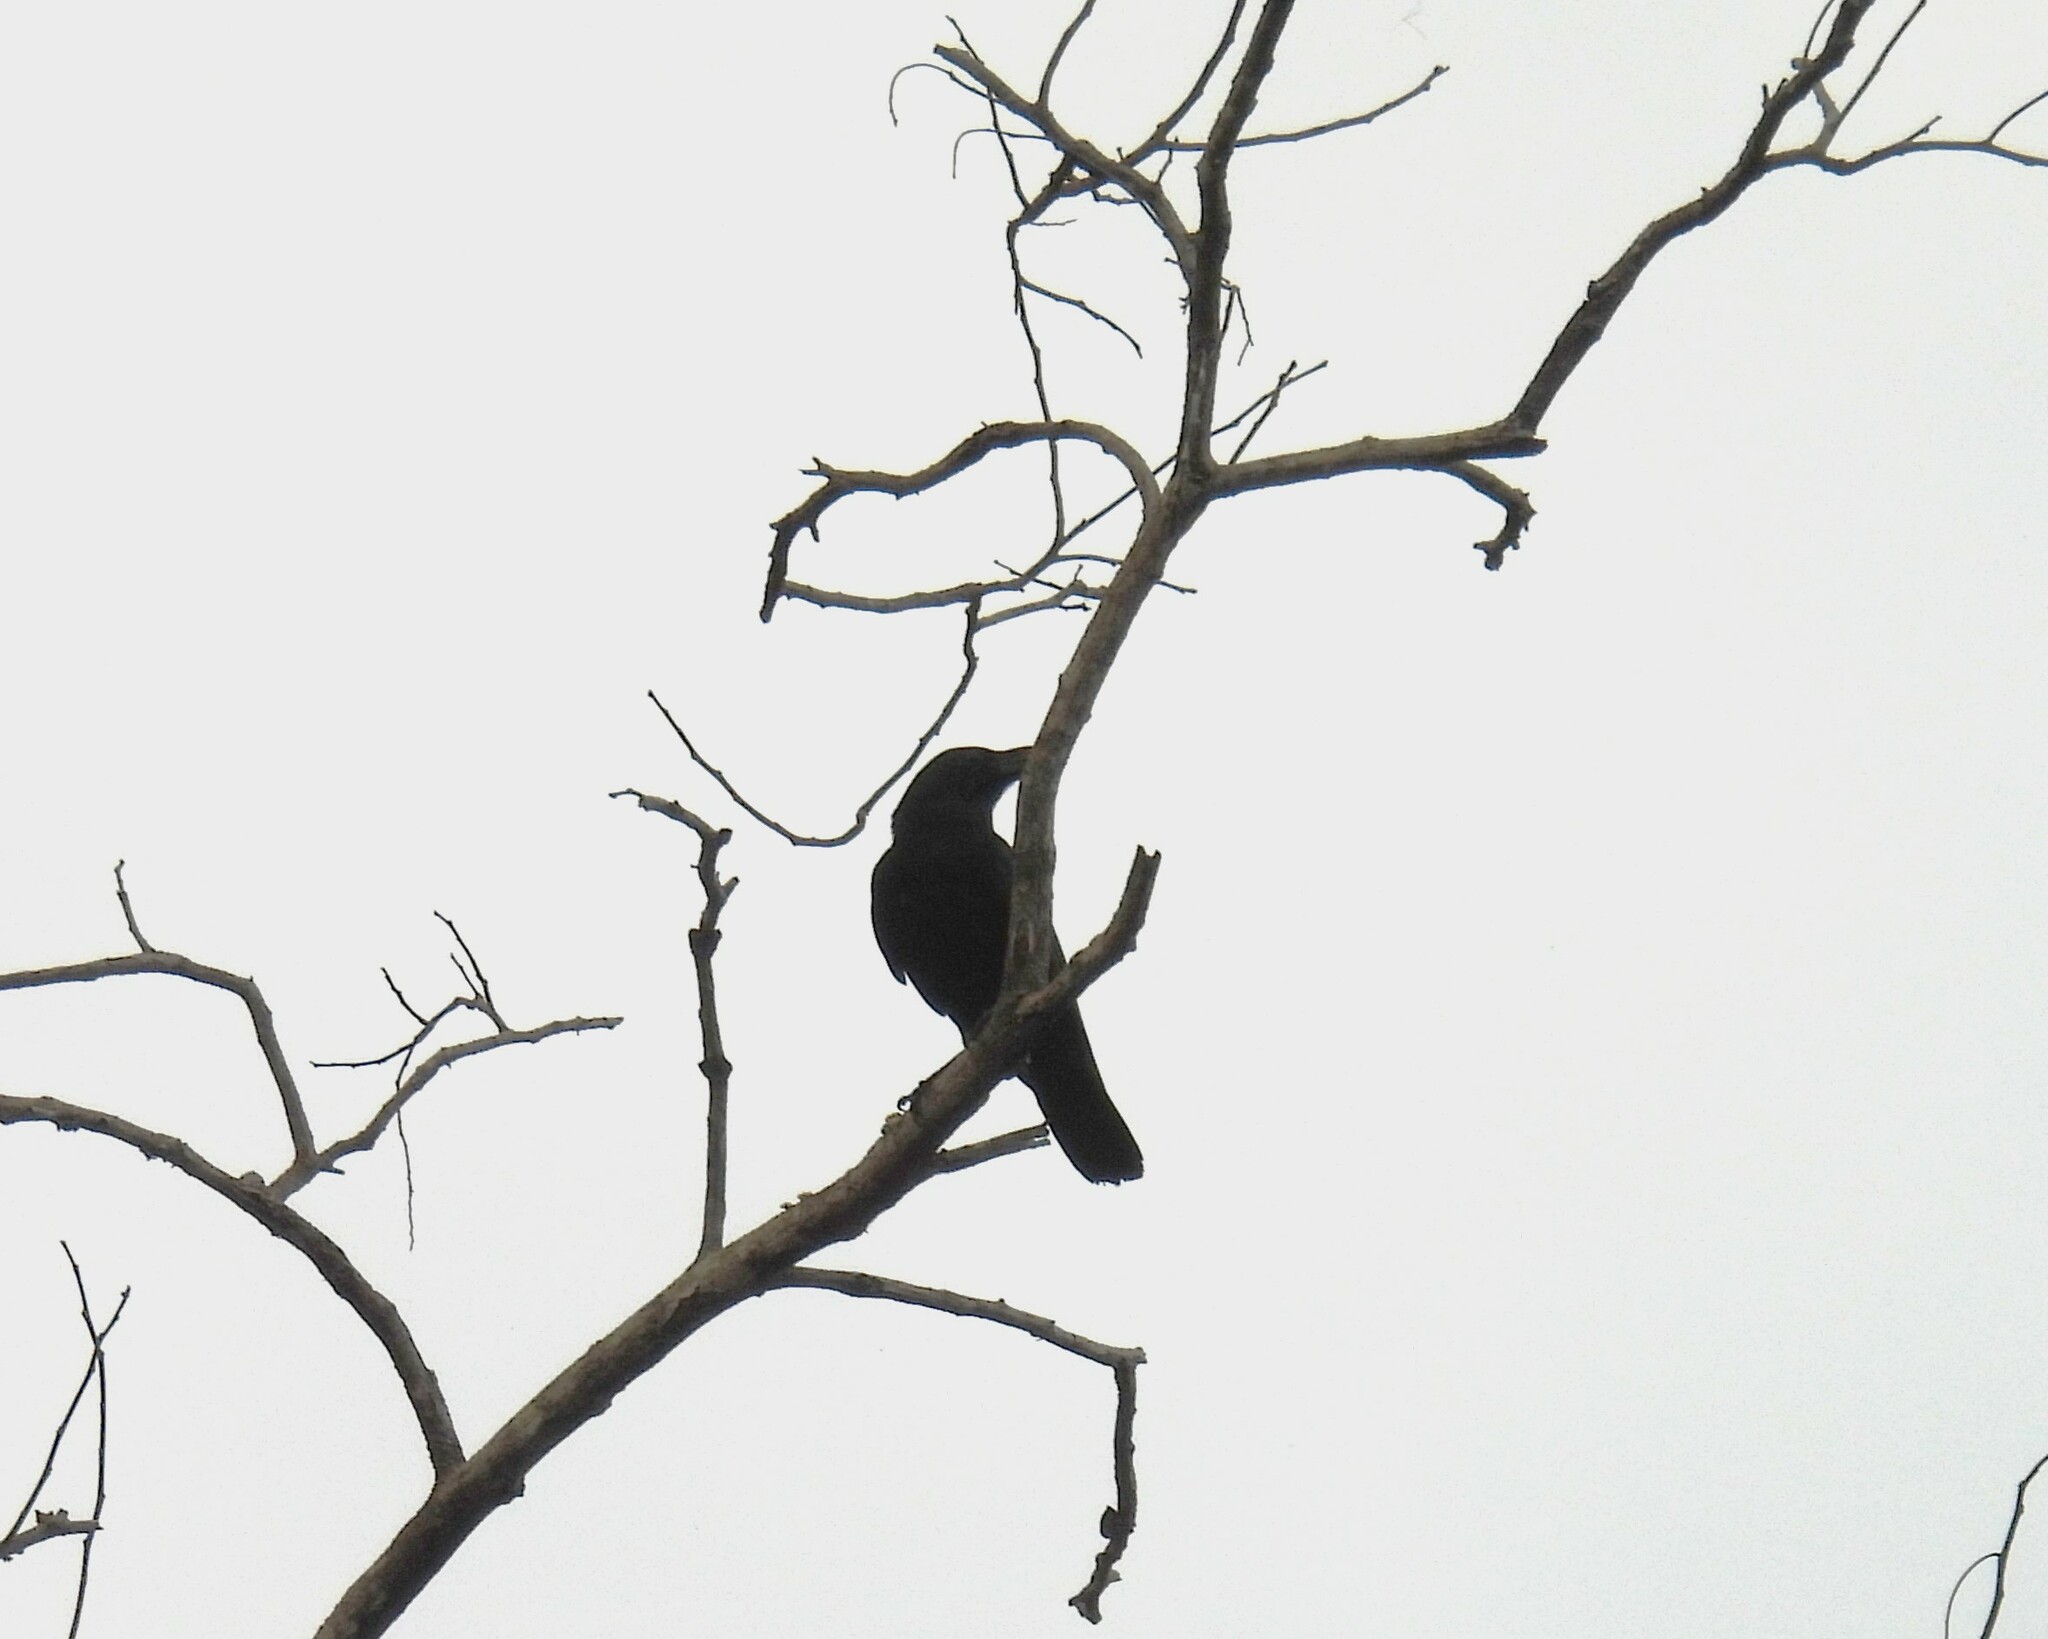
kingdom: Animalia
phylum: Chordata
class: Aves
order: Passeriformes
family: Corvidae
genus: Corvus
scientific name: Corvus macrorhynchos
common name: Large-billed crow
